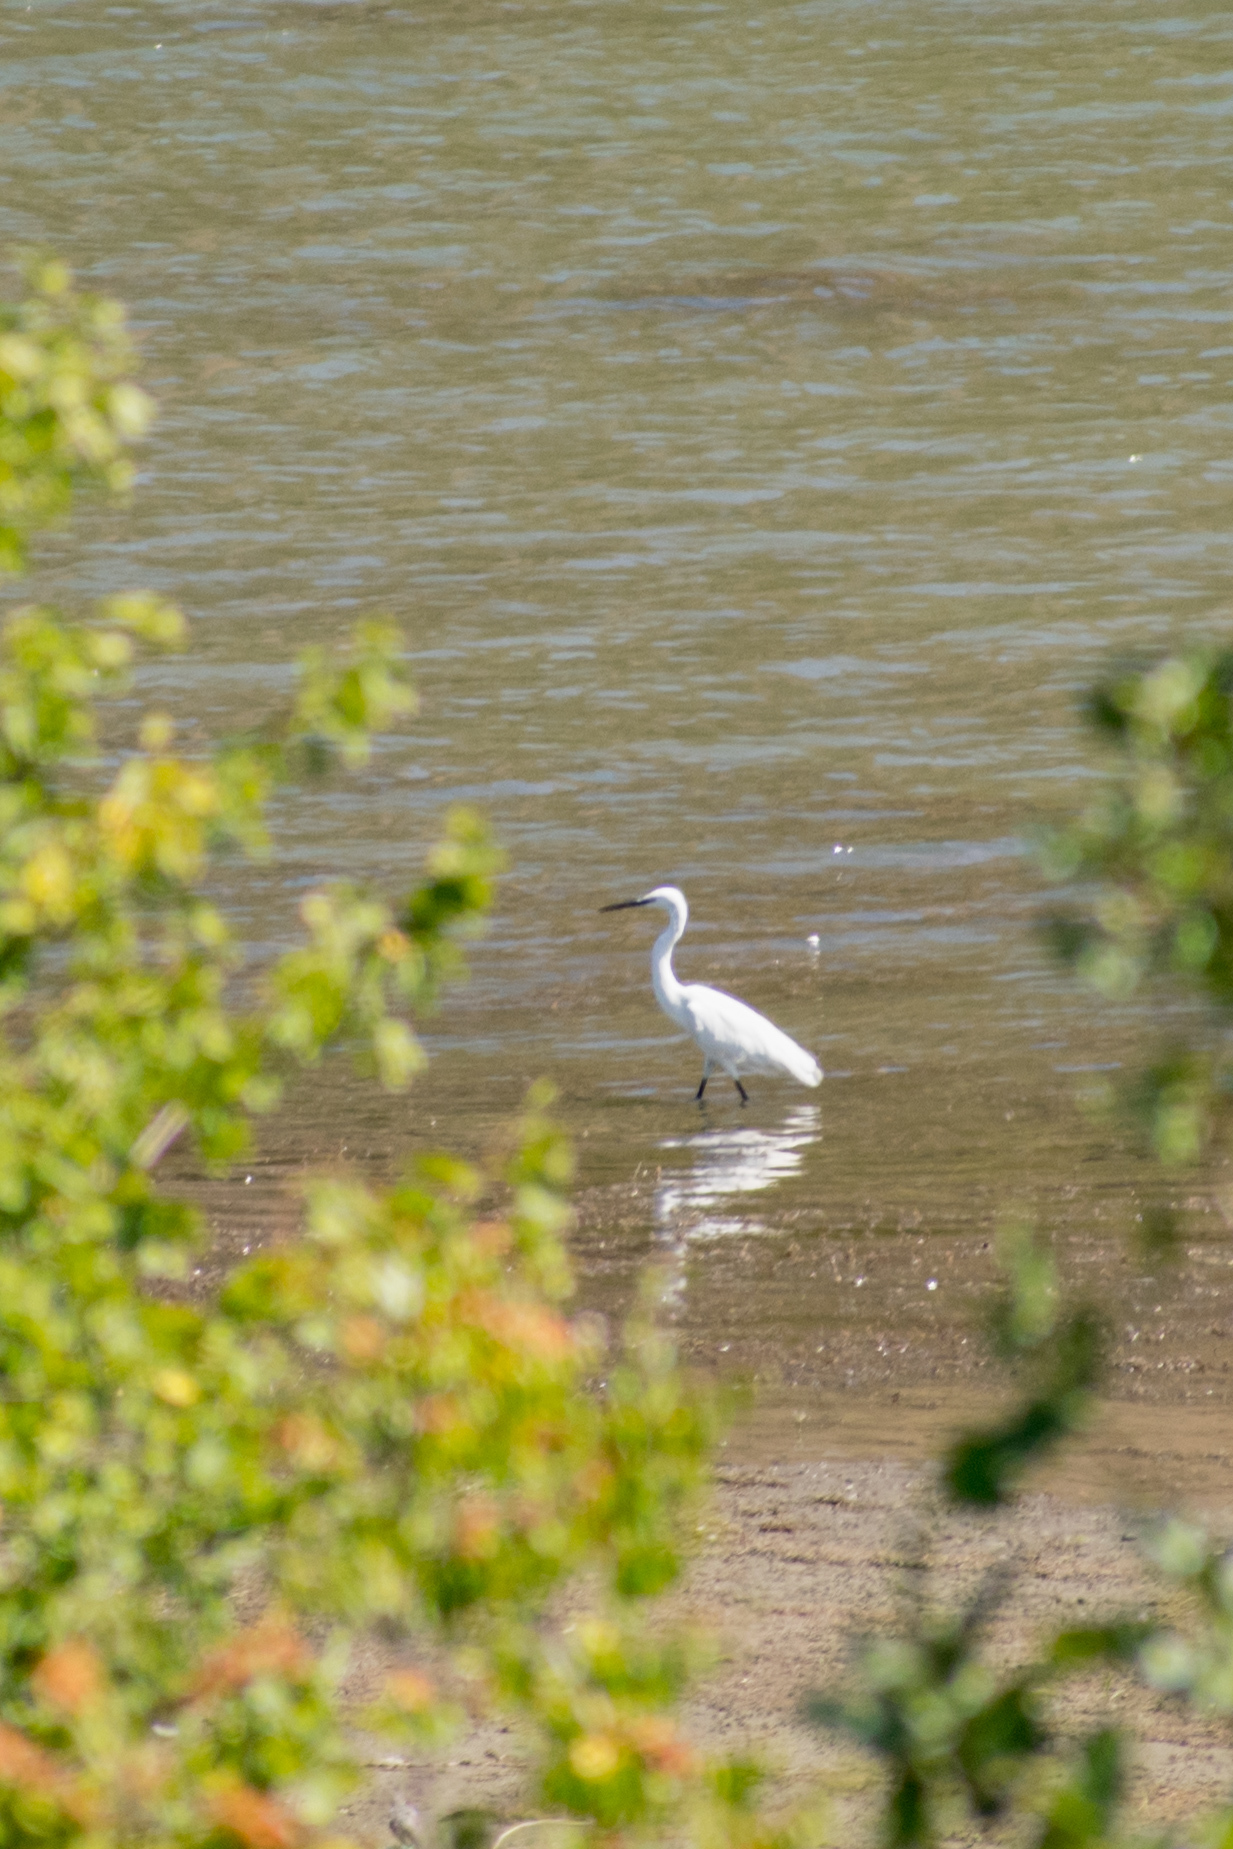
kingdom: Animalia
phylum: Chordata
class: Aves
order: Pelecaniformes
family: Ardeidae
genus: Egretta
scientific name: Egretta garzetta
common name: Little egret
